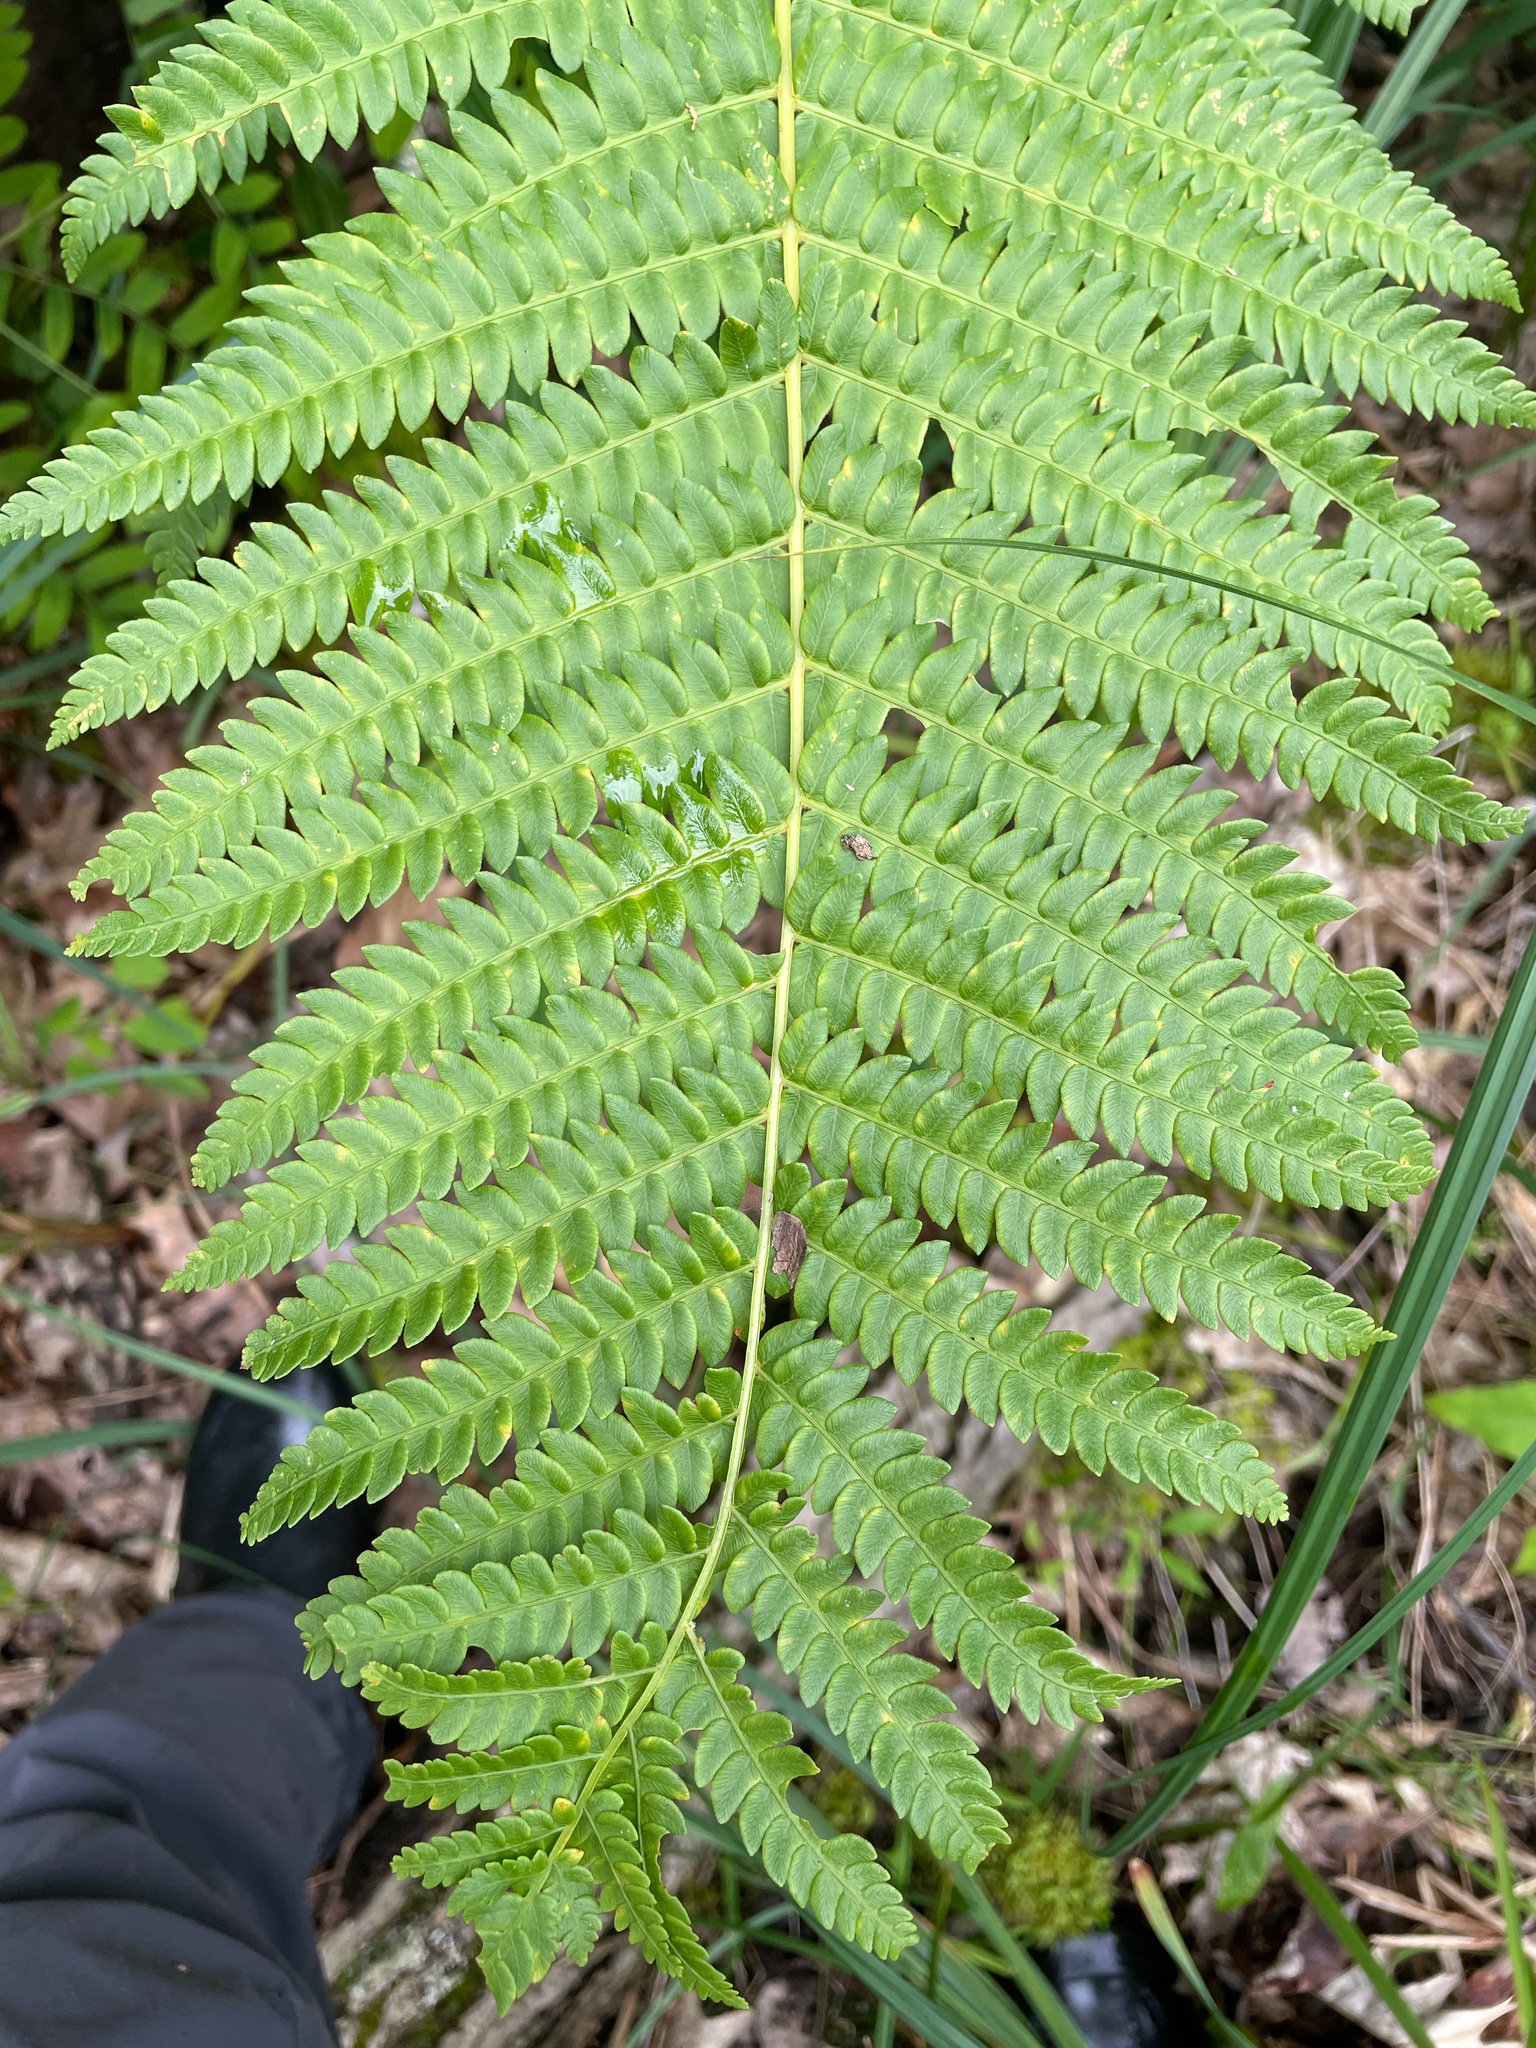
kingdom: Plantae
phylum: Tracheophyta
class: Polypodiopsida
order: Osmundales
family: Osmundaceae
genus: Osmundastrum
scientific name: Osmundastrum cinnamomeum
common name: Cinnamon fern
